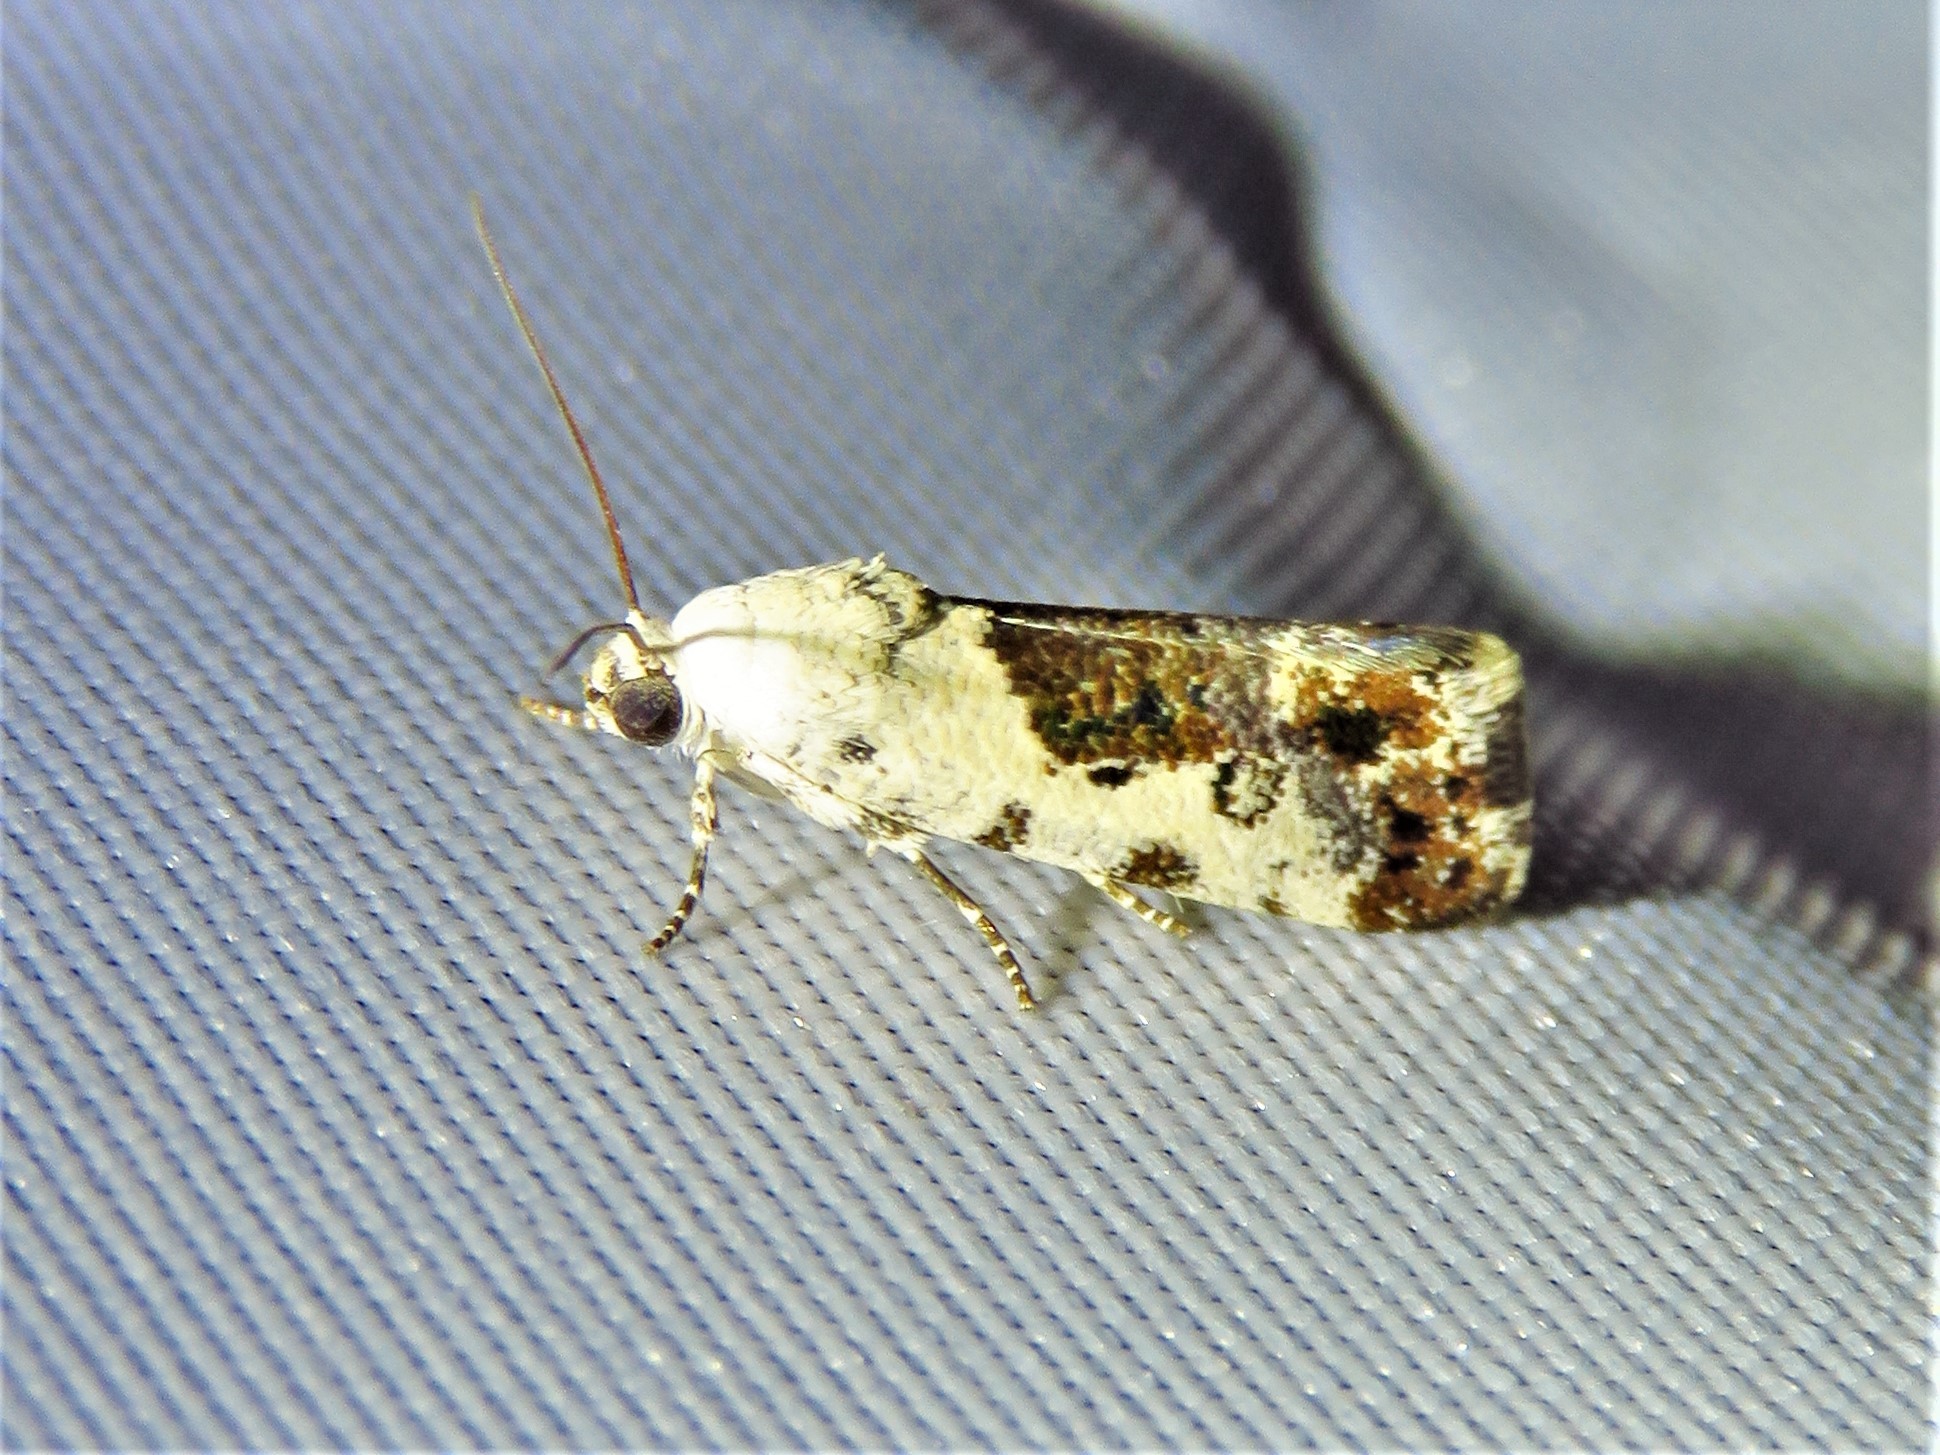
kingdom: Animalia
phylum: Arthropoda
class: Insecta
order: Lepidoptera
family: Noctuidae
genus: Acontia
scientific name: Acontia phecolisca
